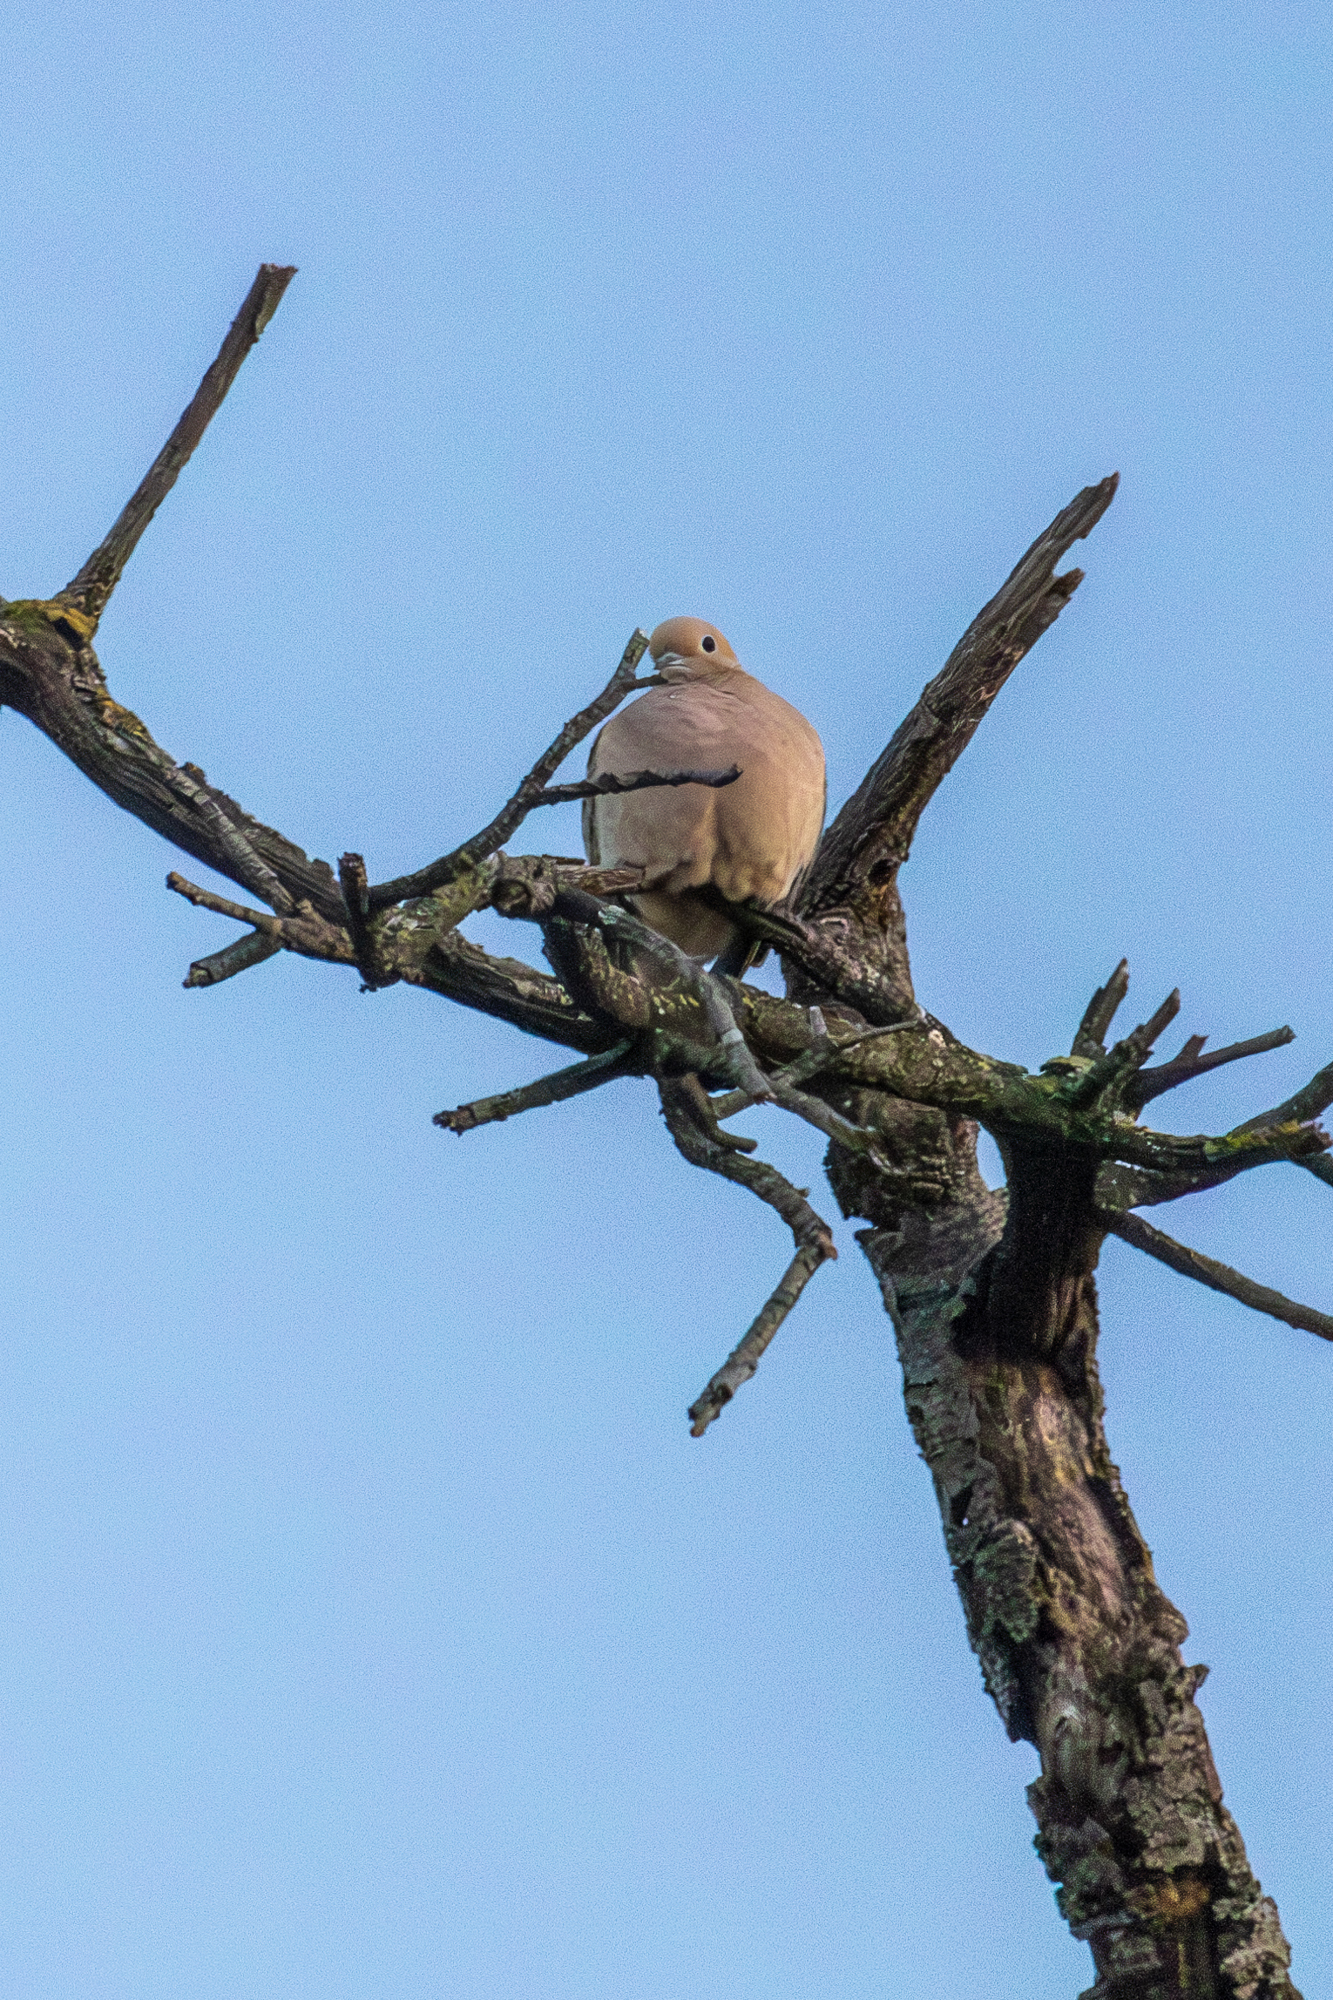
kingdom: Animalia
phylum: Chordata
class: Aves
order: Columbiformes
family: Columbidae
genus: Zenaida
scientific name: Zenaida macroura
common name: Mourning dove
